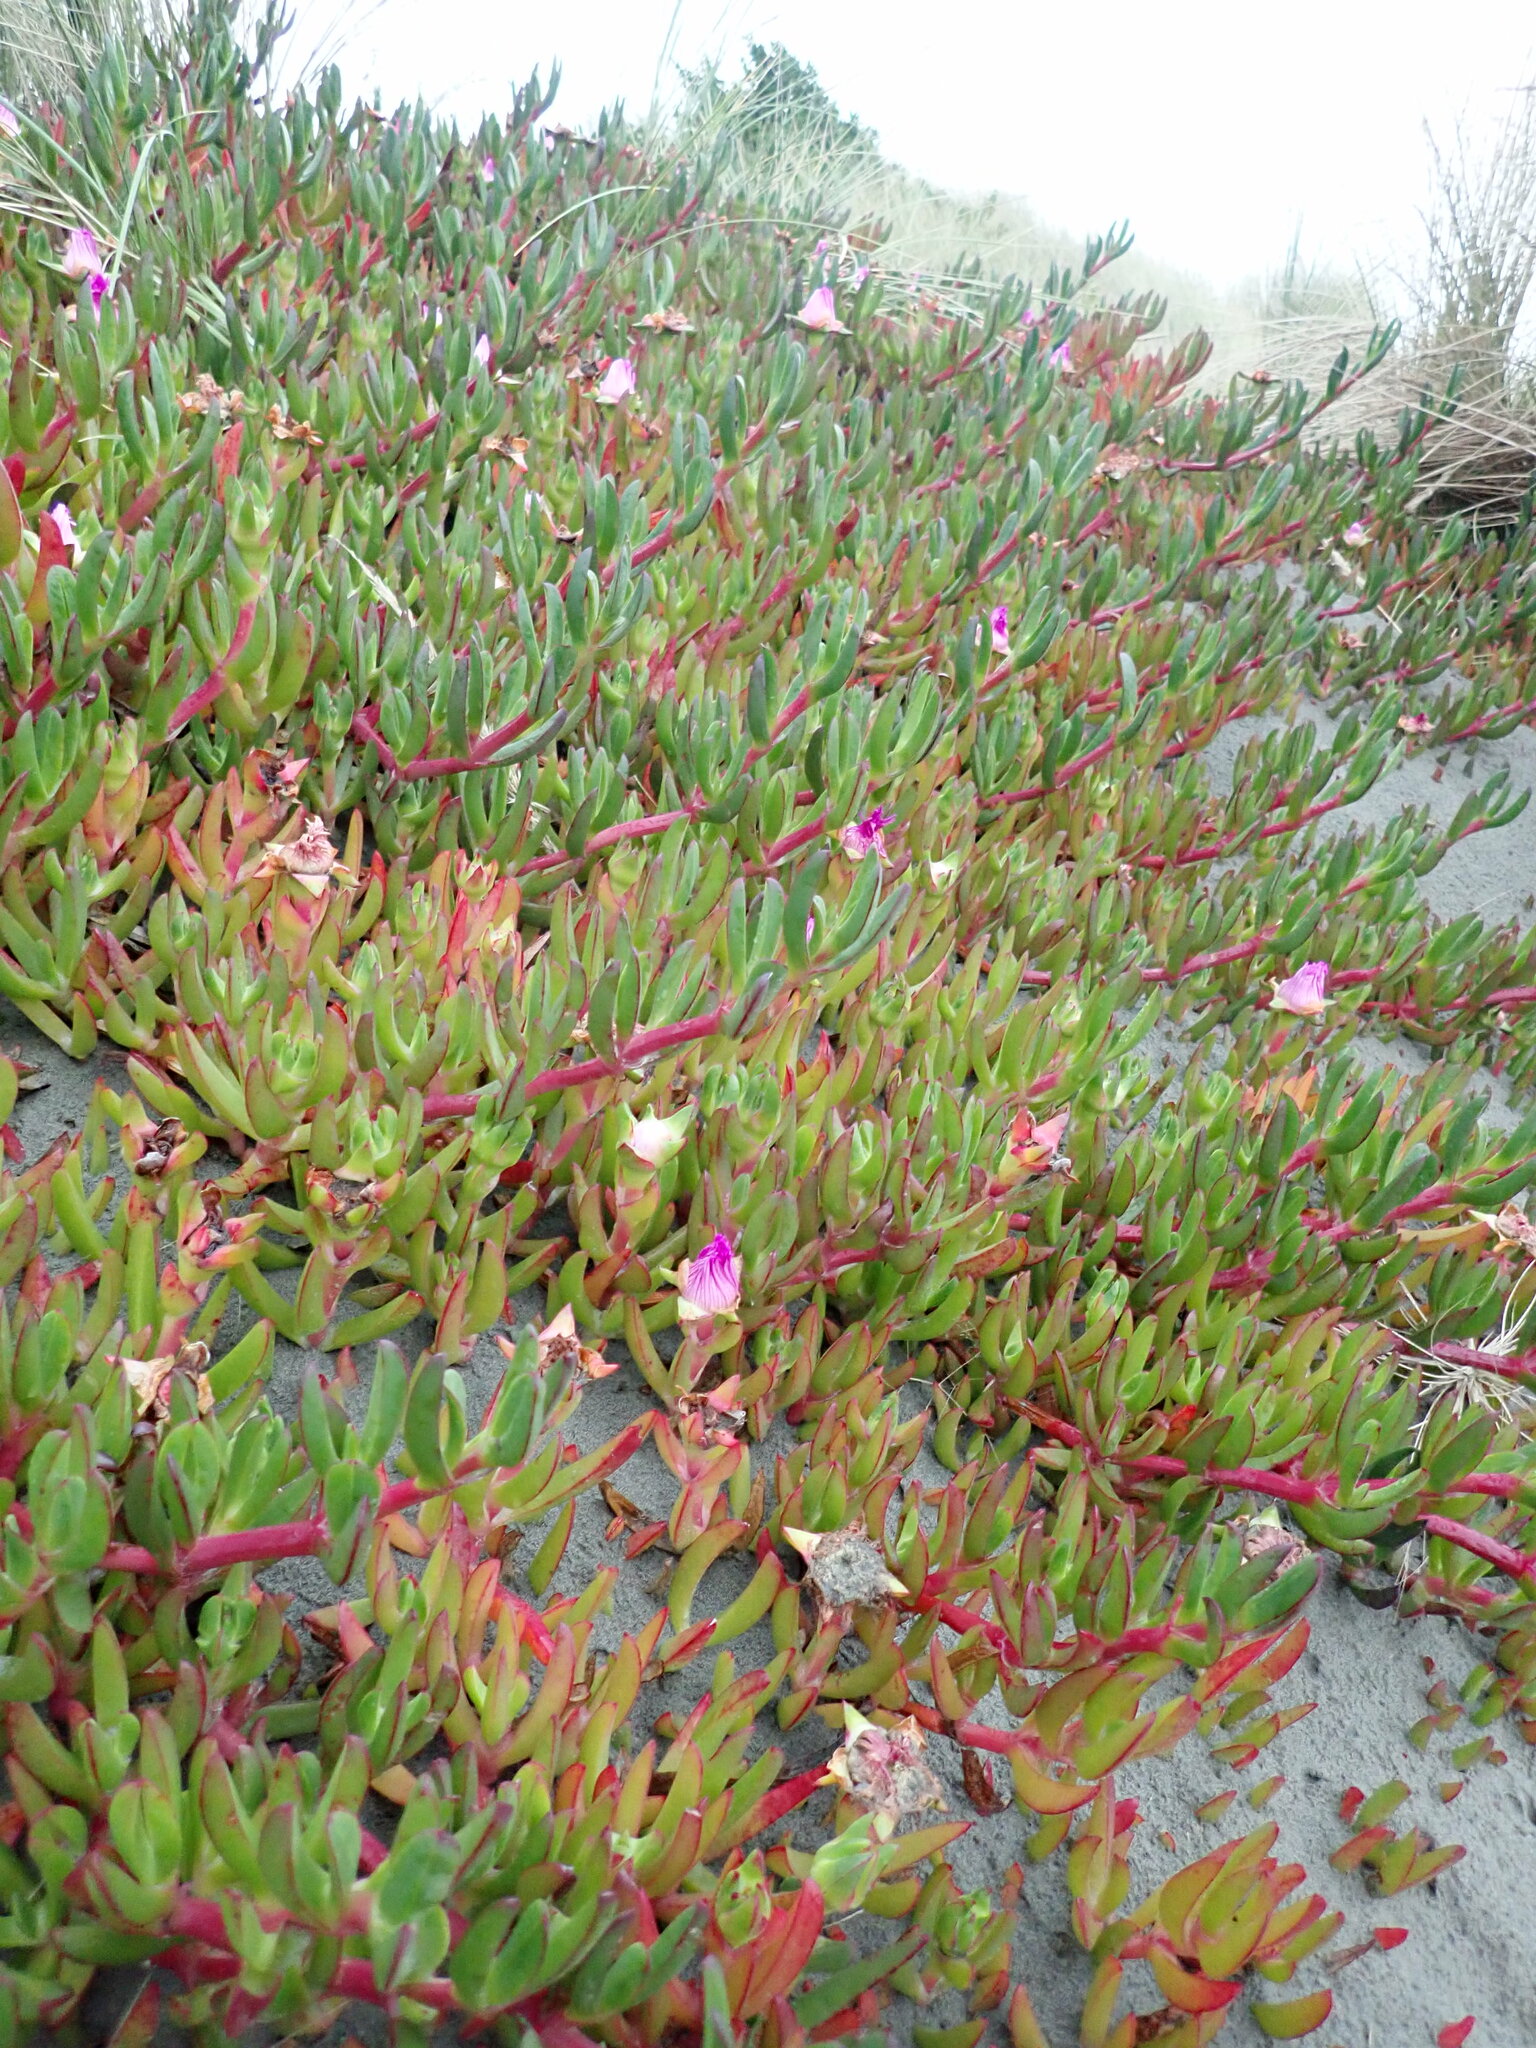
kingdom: Plantae
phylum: Tracheophyta
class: Magnoliopsida
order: Caryophyllales
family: Aizoaceae
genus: Carpobrotus
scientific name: Carpobrotus chilensis
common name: Sea fig
